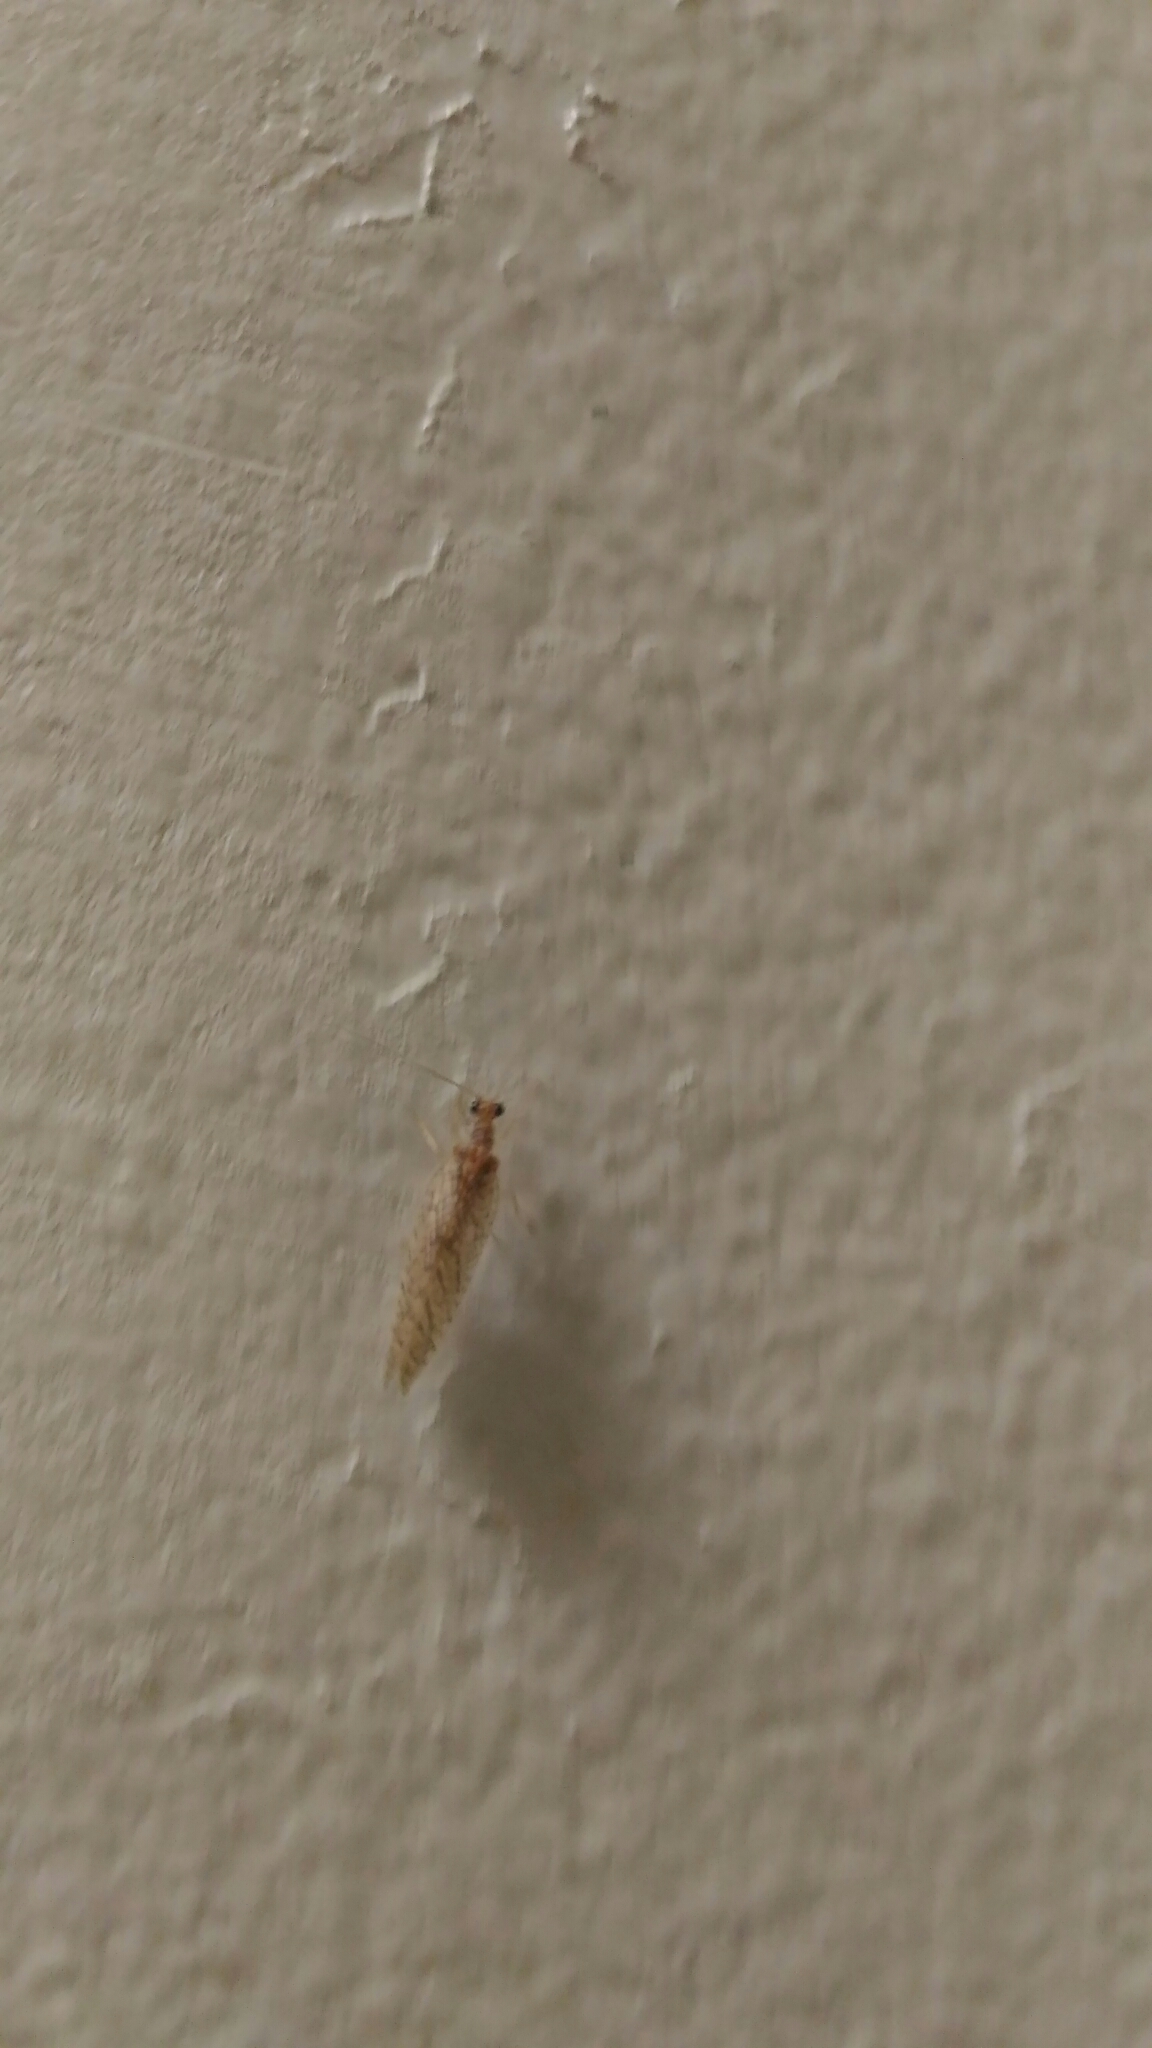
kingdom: Animalia
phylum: Arthropoda
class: Insecta
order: Neuroptera
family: Hemerobiidae
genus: Micromus
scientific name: Micromus posticus
